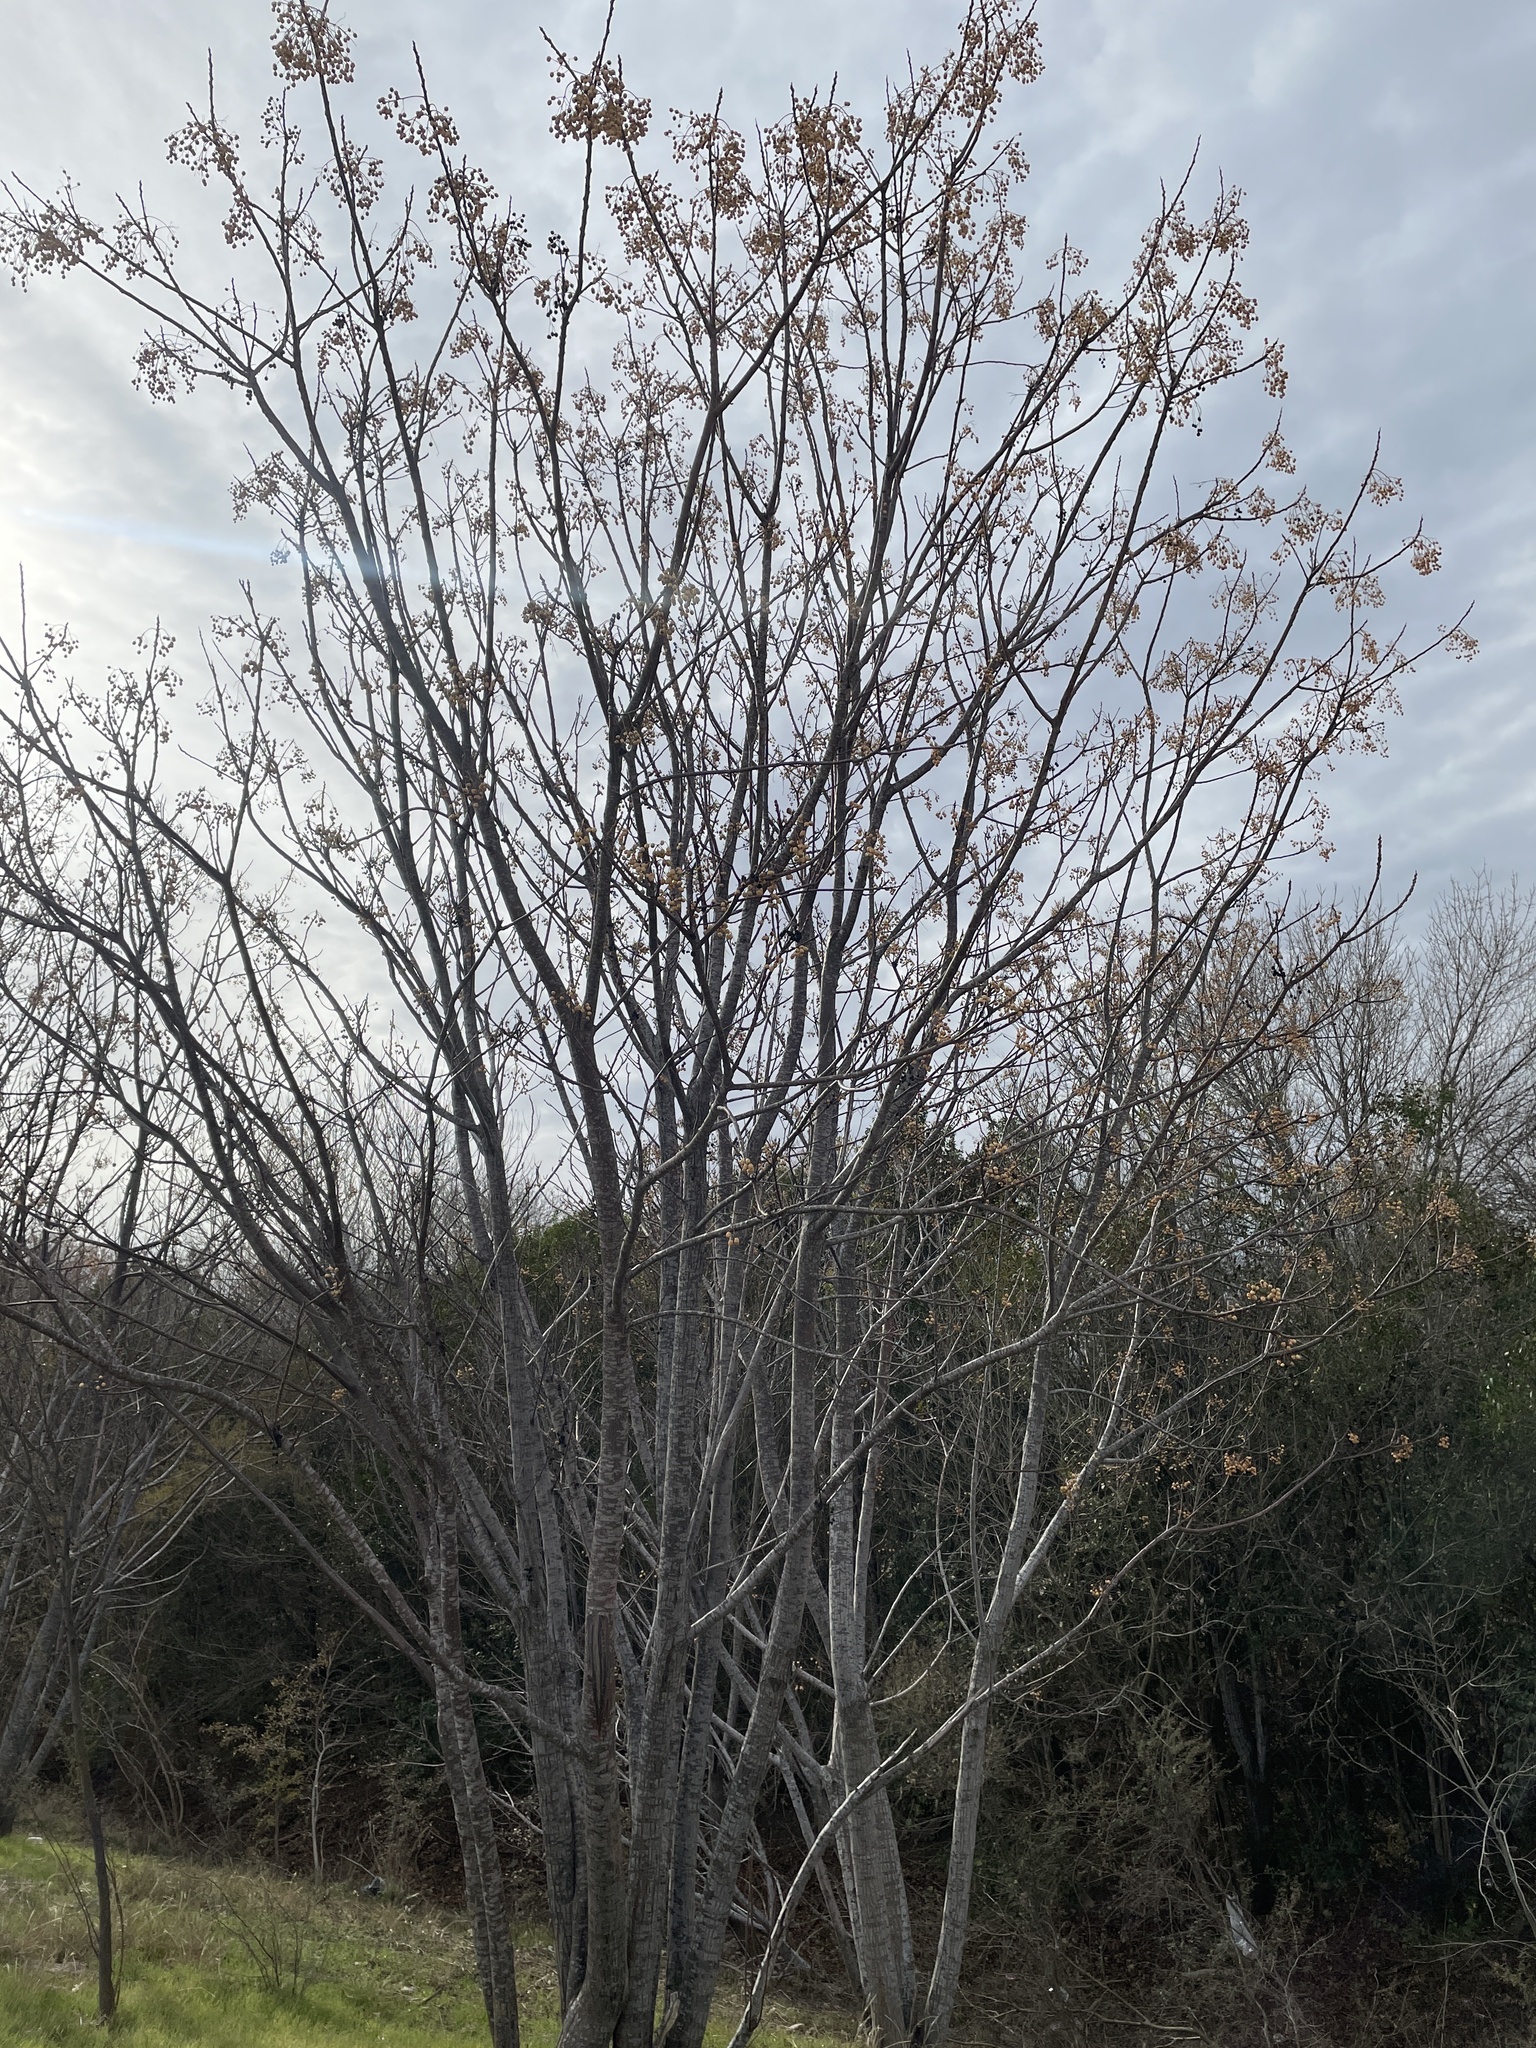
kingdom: Plantae
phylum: Tracheophyta
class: Magnoliopsida
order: Sapindales
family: Meliaceae
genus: Melia
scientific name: Melia azedarach
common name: Chinaberrytree
